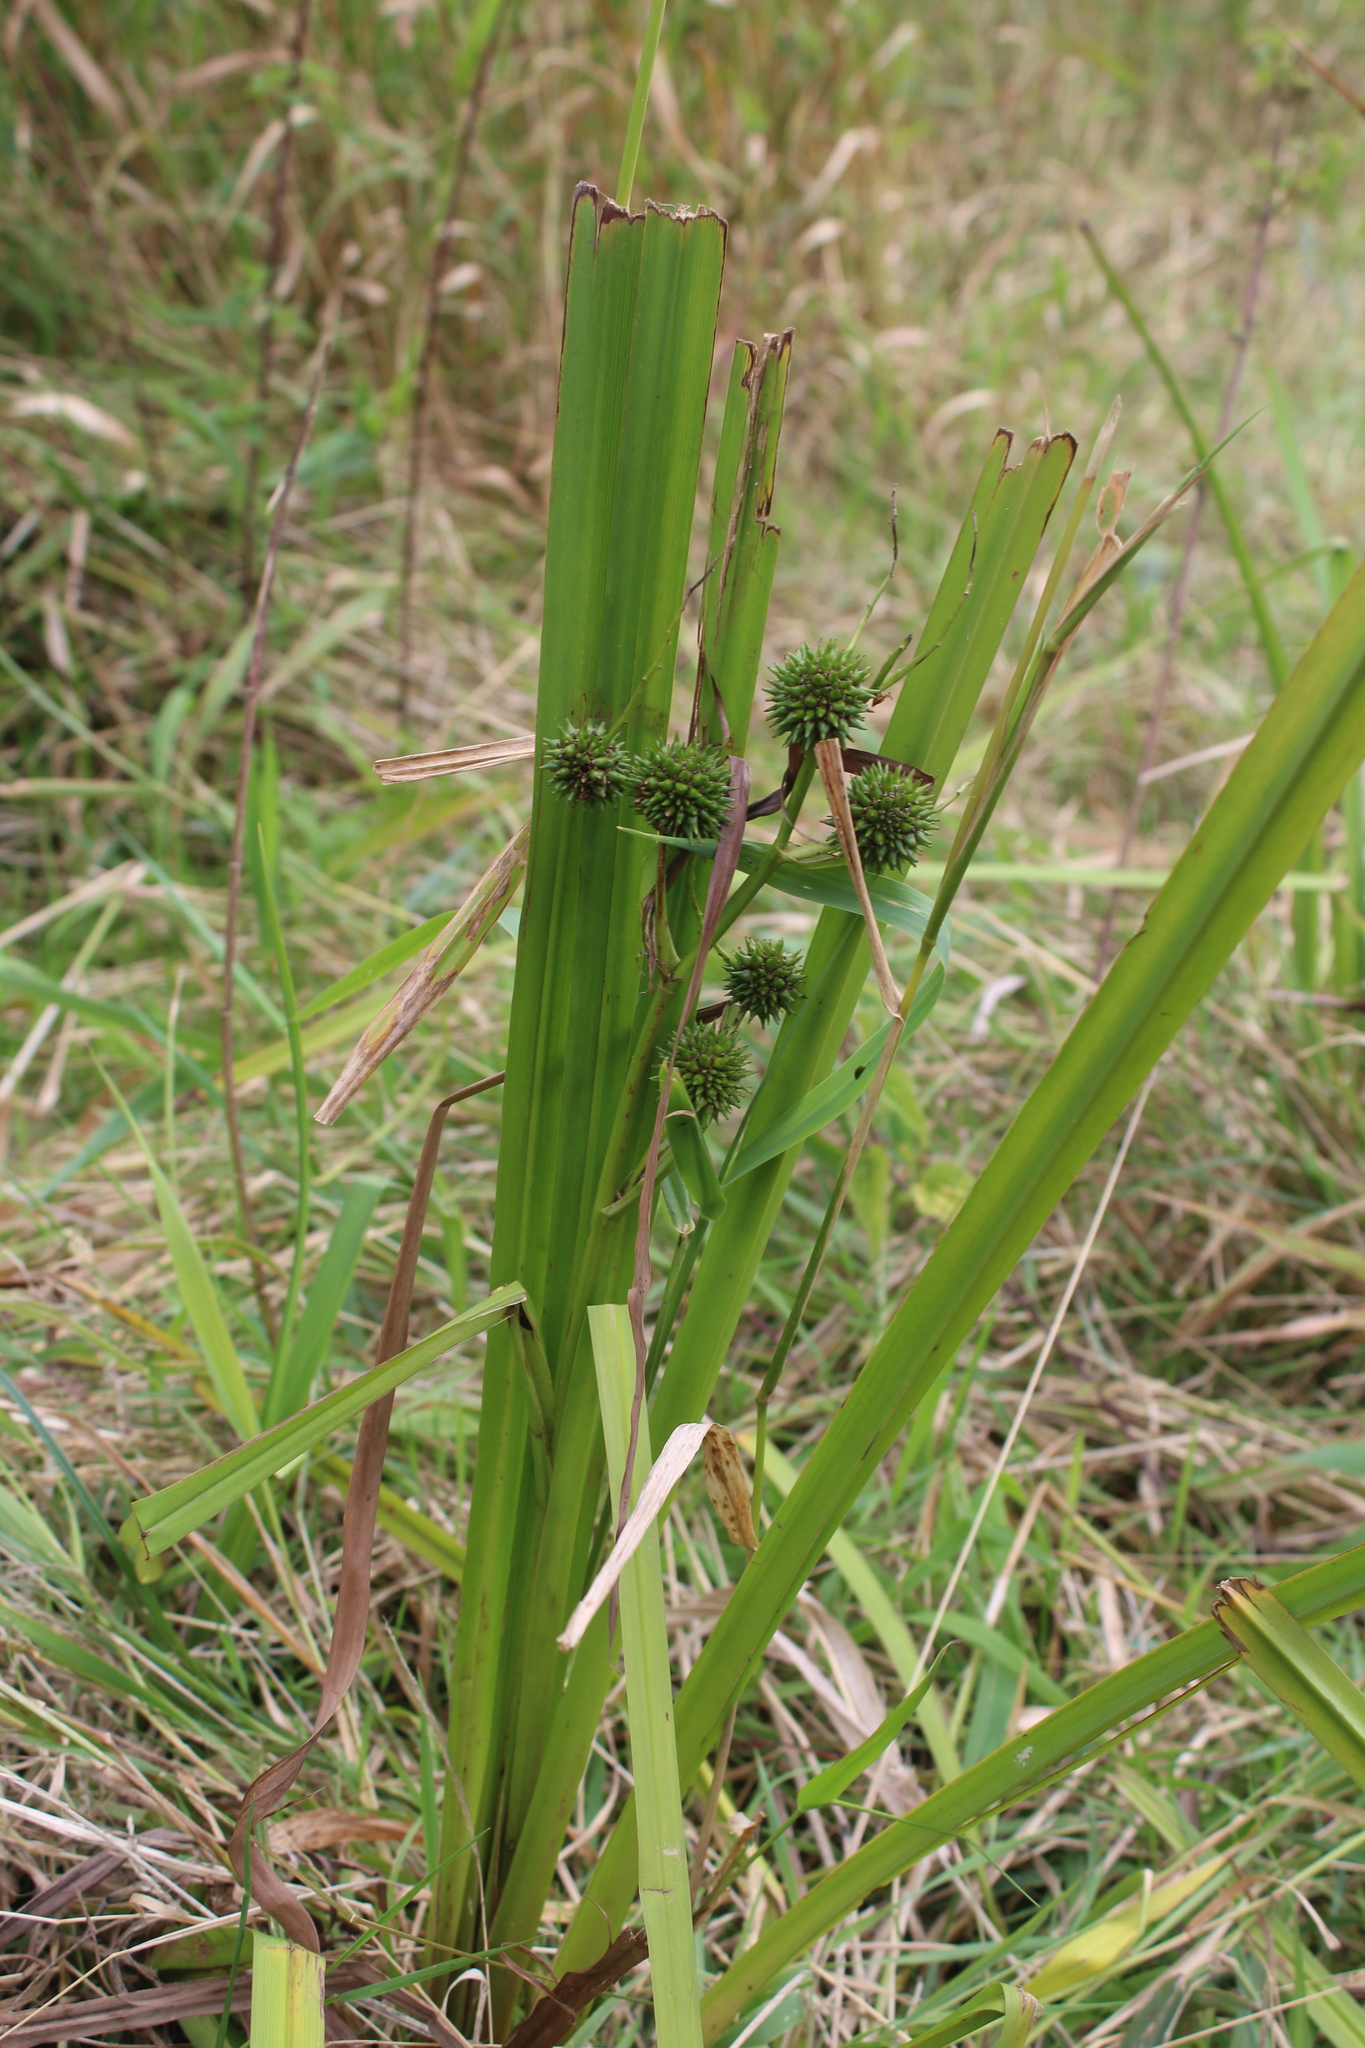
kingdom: Plantae
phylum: Tracheophyta
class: Liliopsida
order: Poales
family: Typhaceae
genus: Sparganium
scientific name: Sparganium erectum
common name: Branched bur-reed
